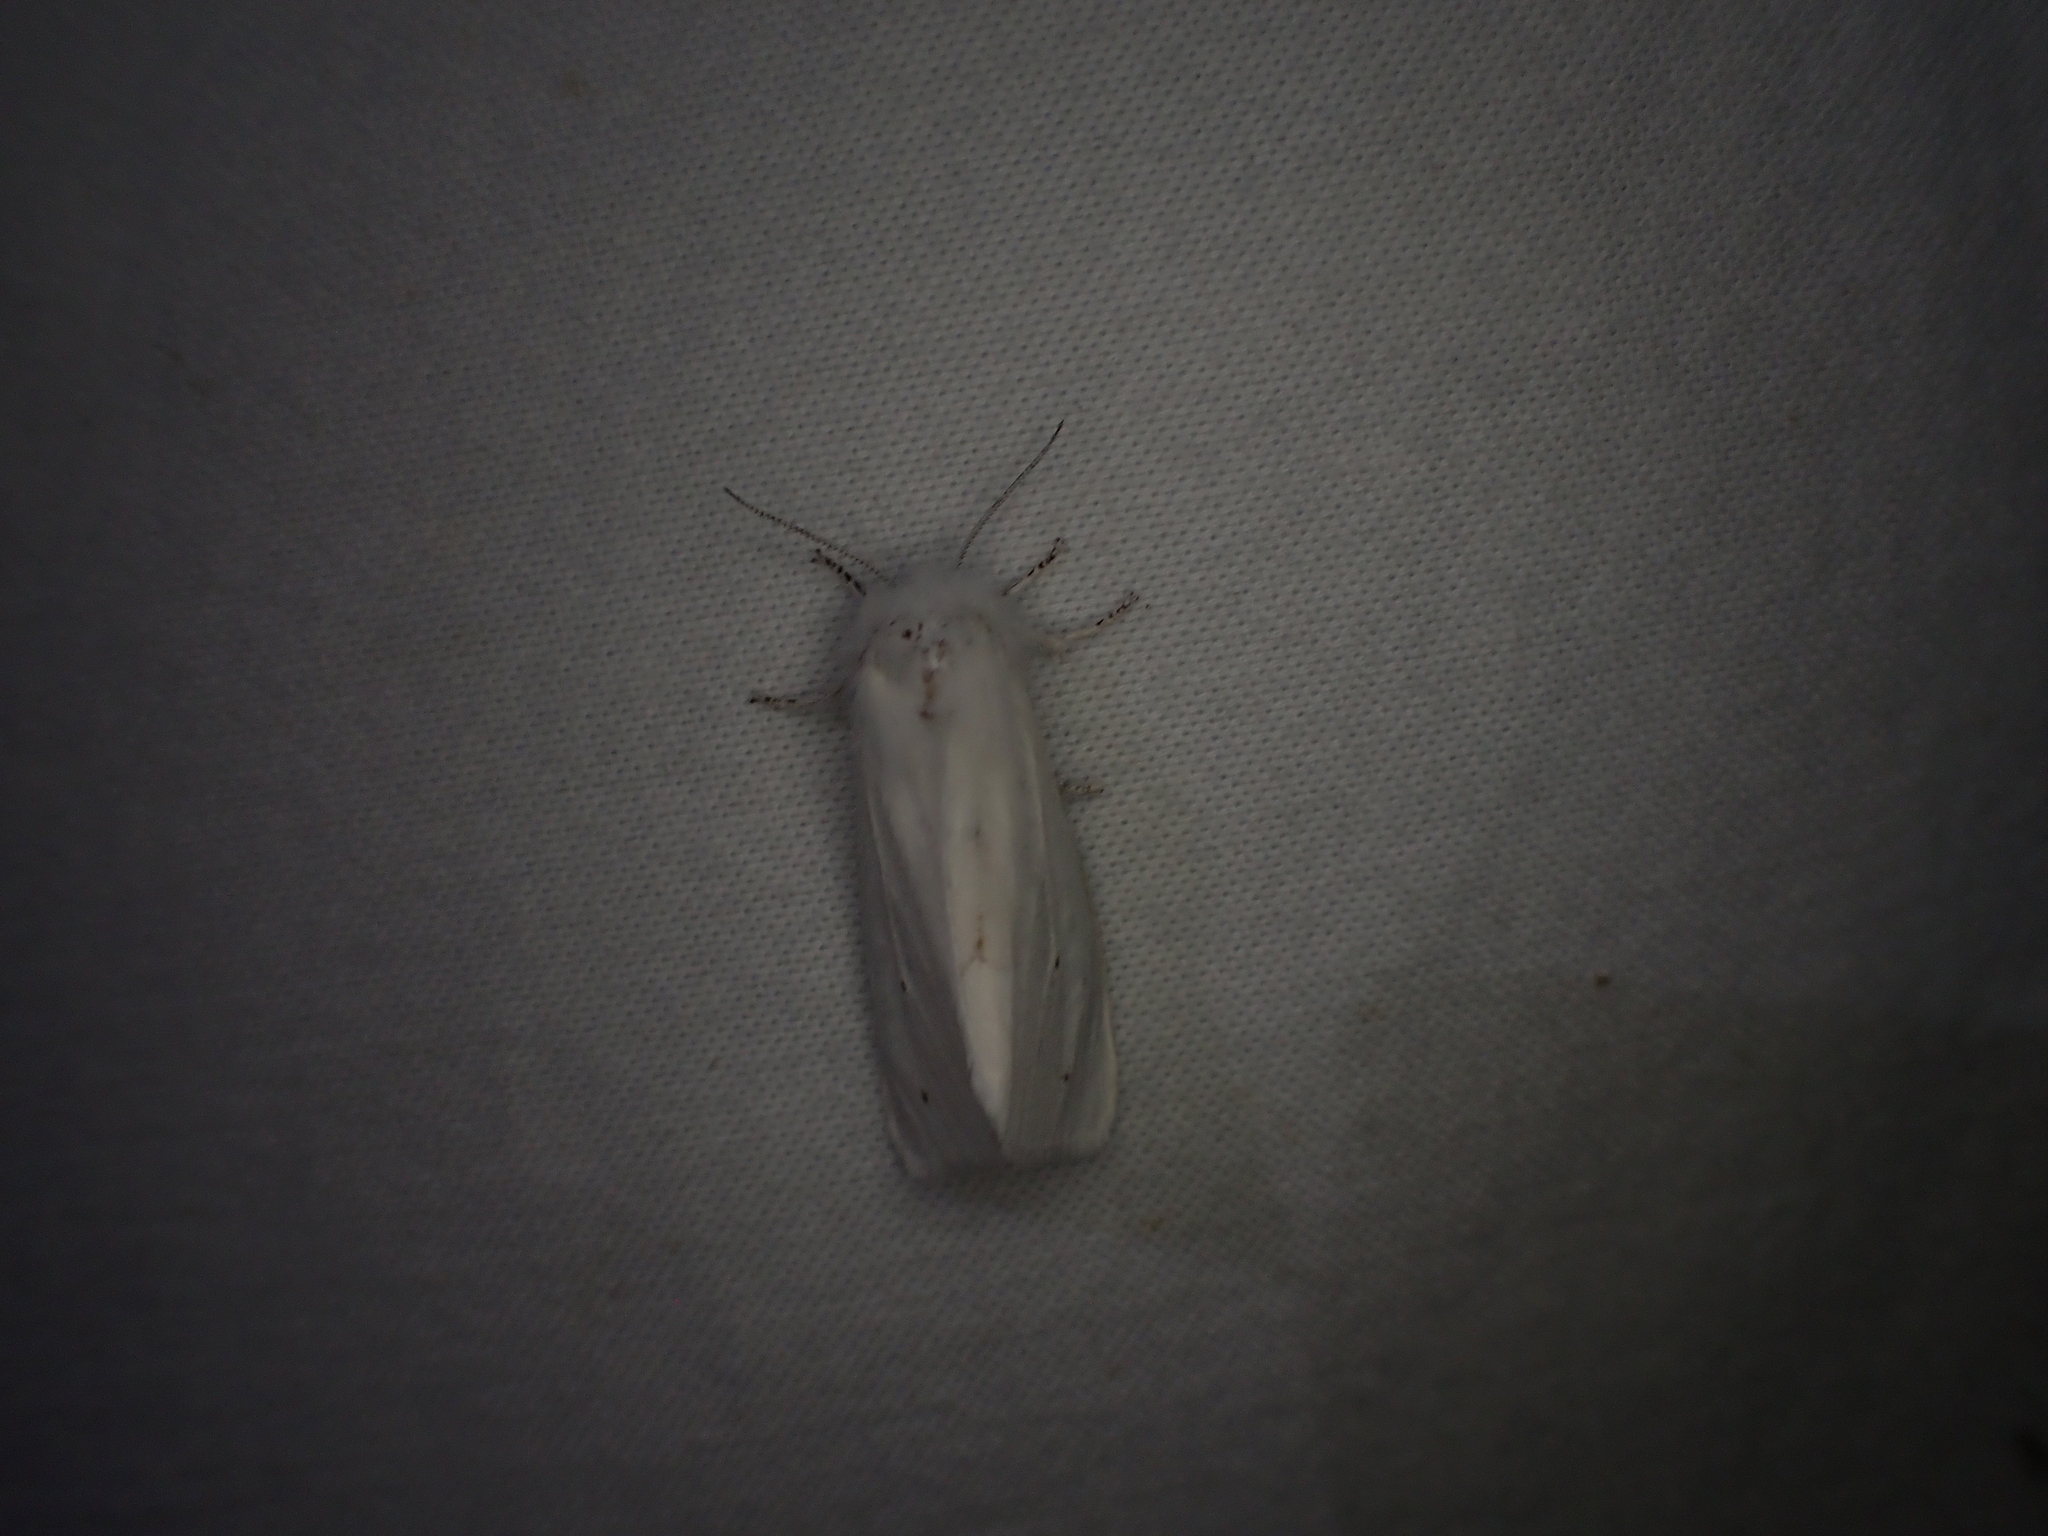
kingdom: Animalia
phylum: Arthropoda
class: Insecta
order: Lepidoptera
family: Erebidae
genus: Spilosoma
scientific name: Spilosoma virginica
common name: Virginia tiger moth
